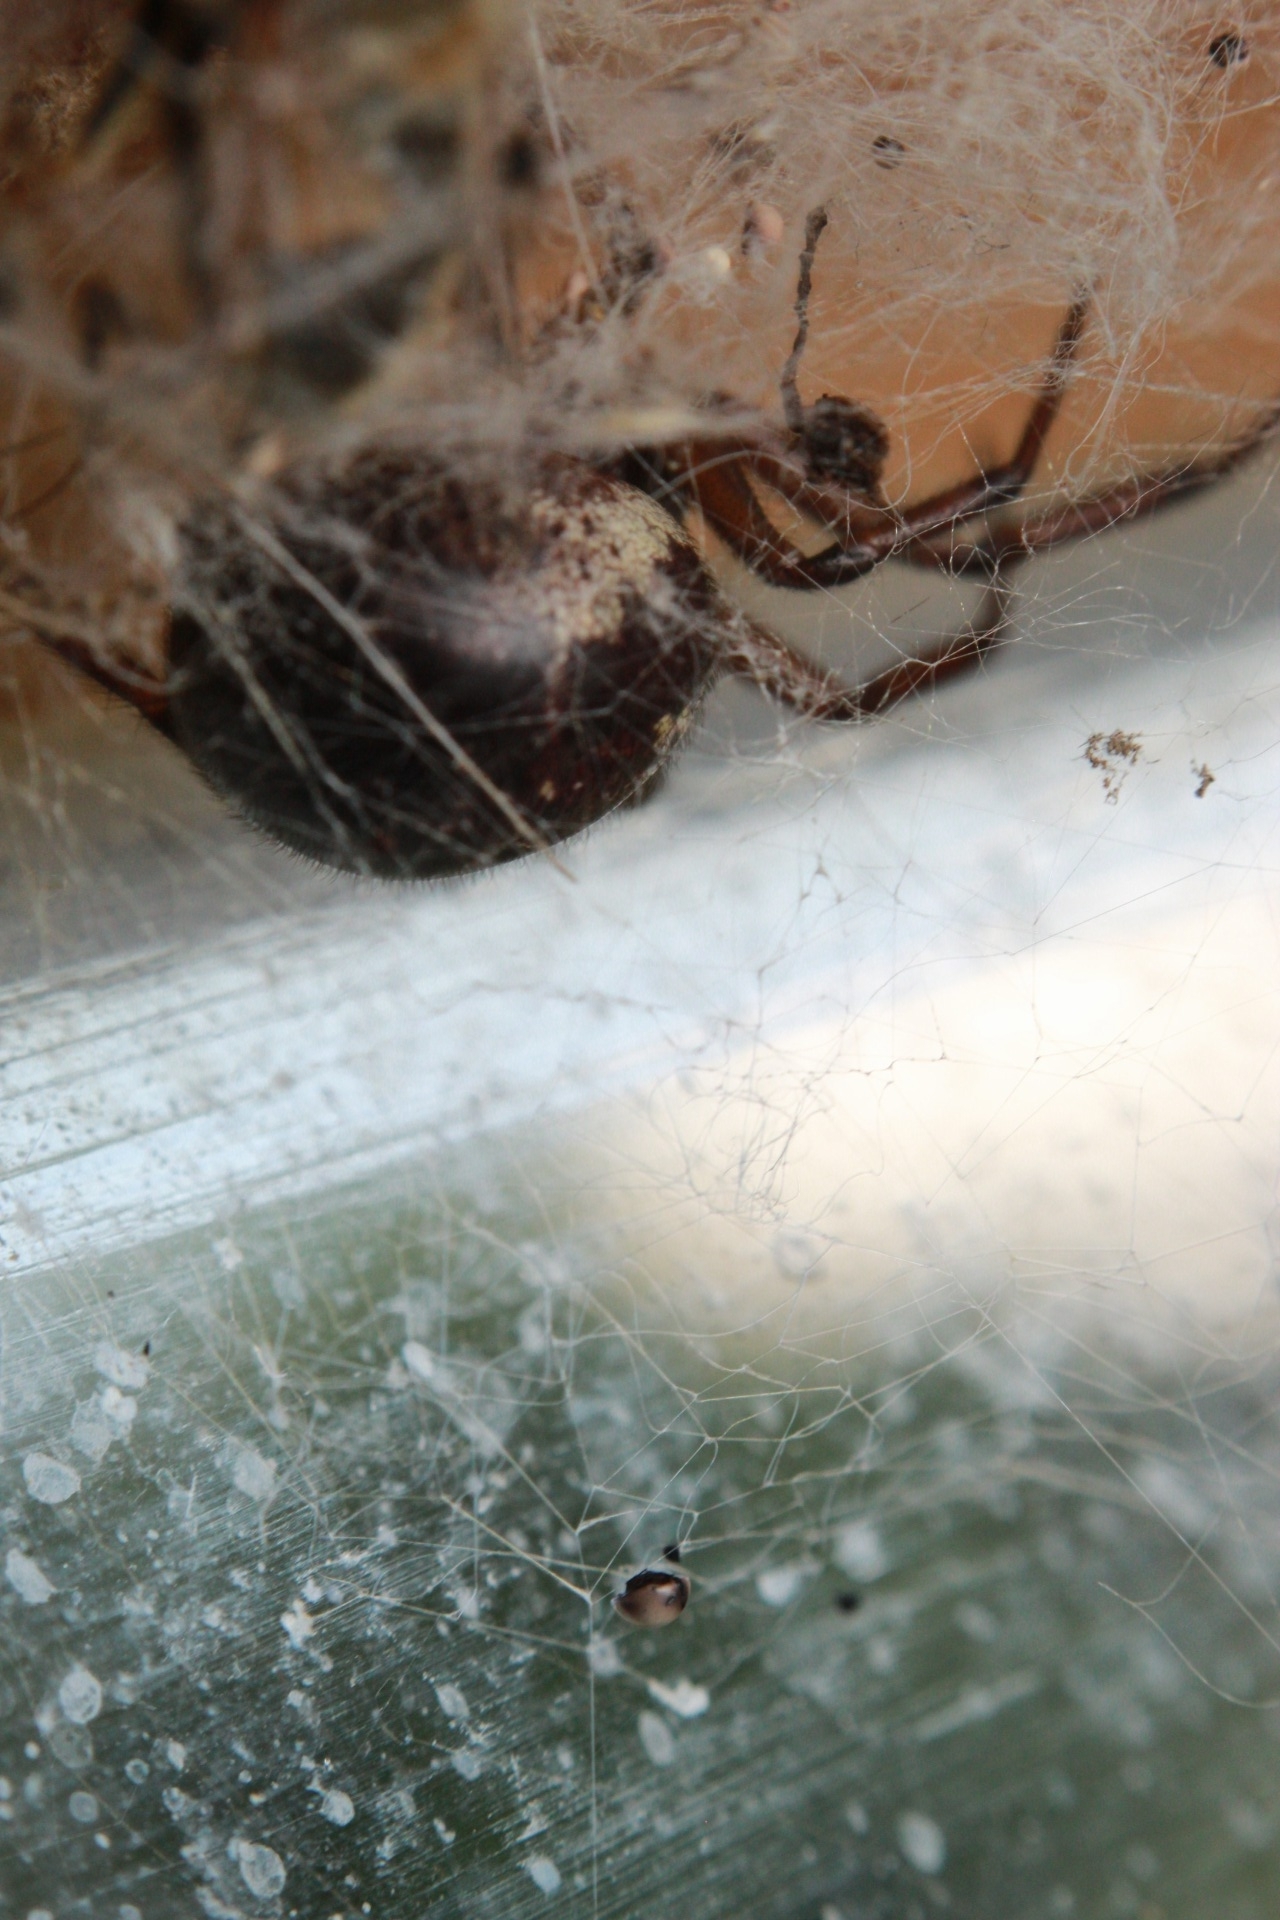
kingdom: Animalia
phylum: Arthropoda
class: Arachnida
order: Araneae
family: Theridiidae
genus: Steatoda
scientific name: Steatoda nobilis
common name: Cobweb weaver
